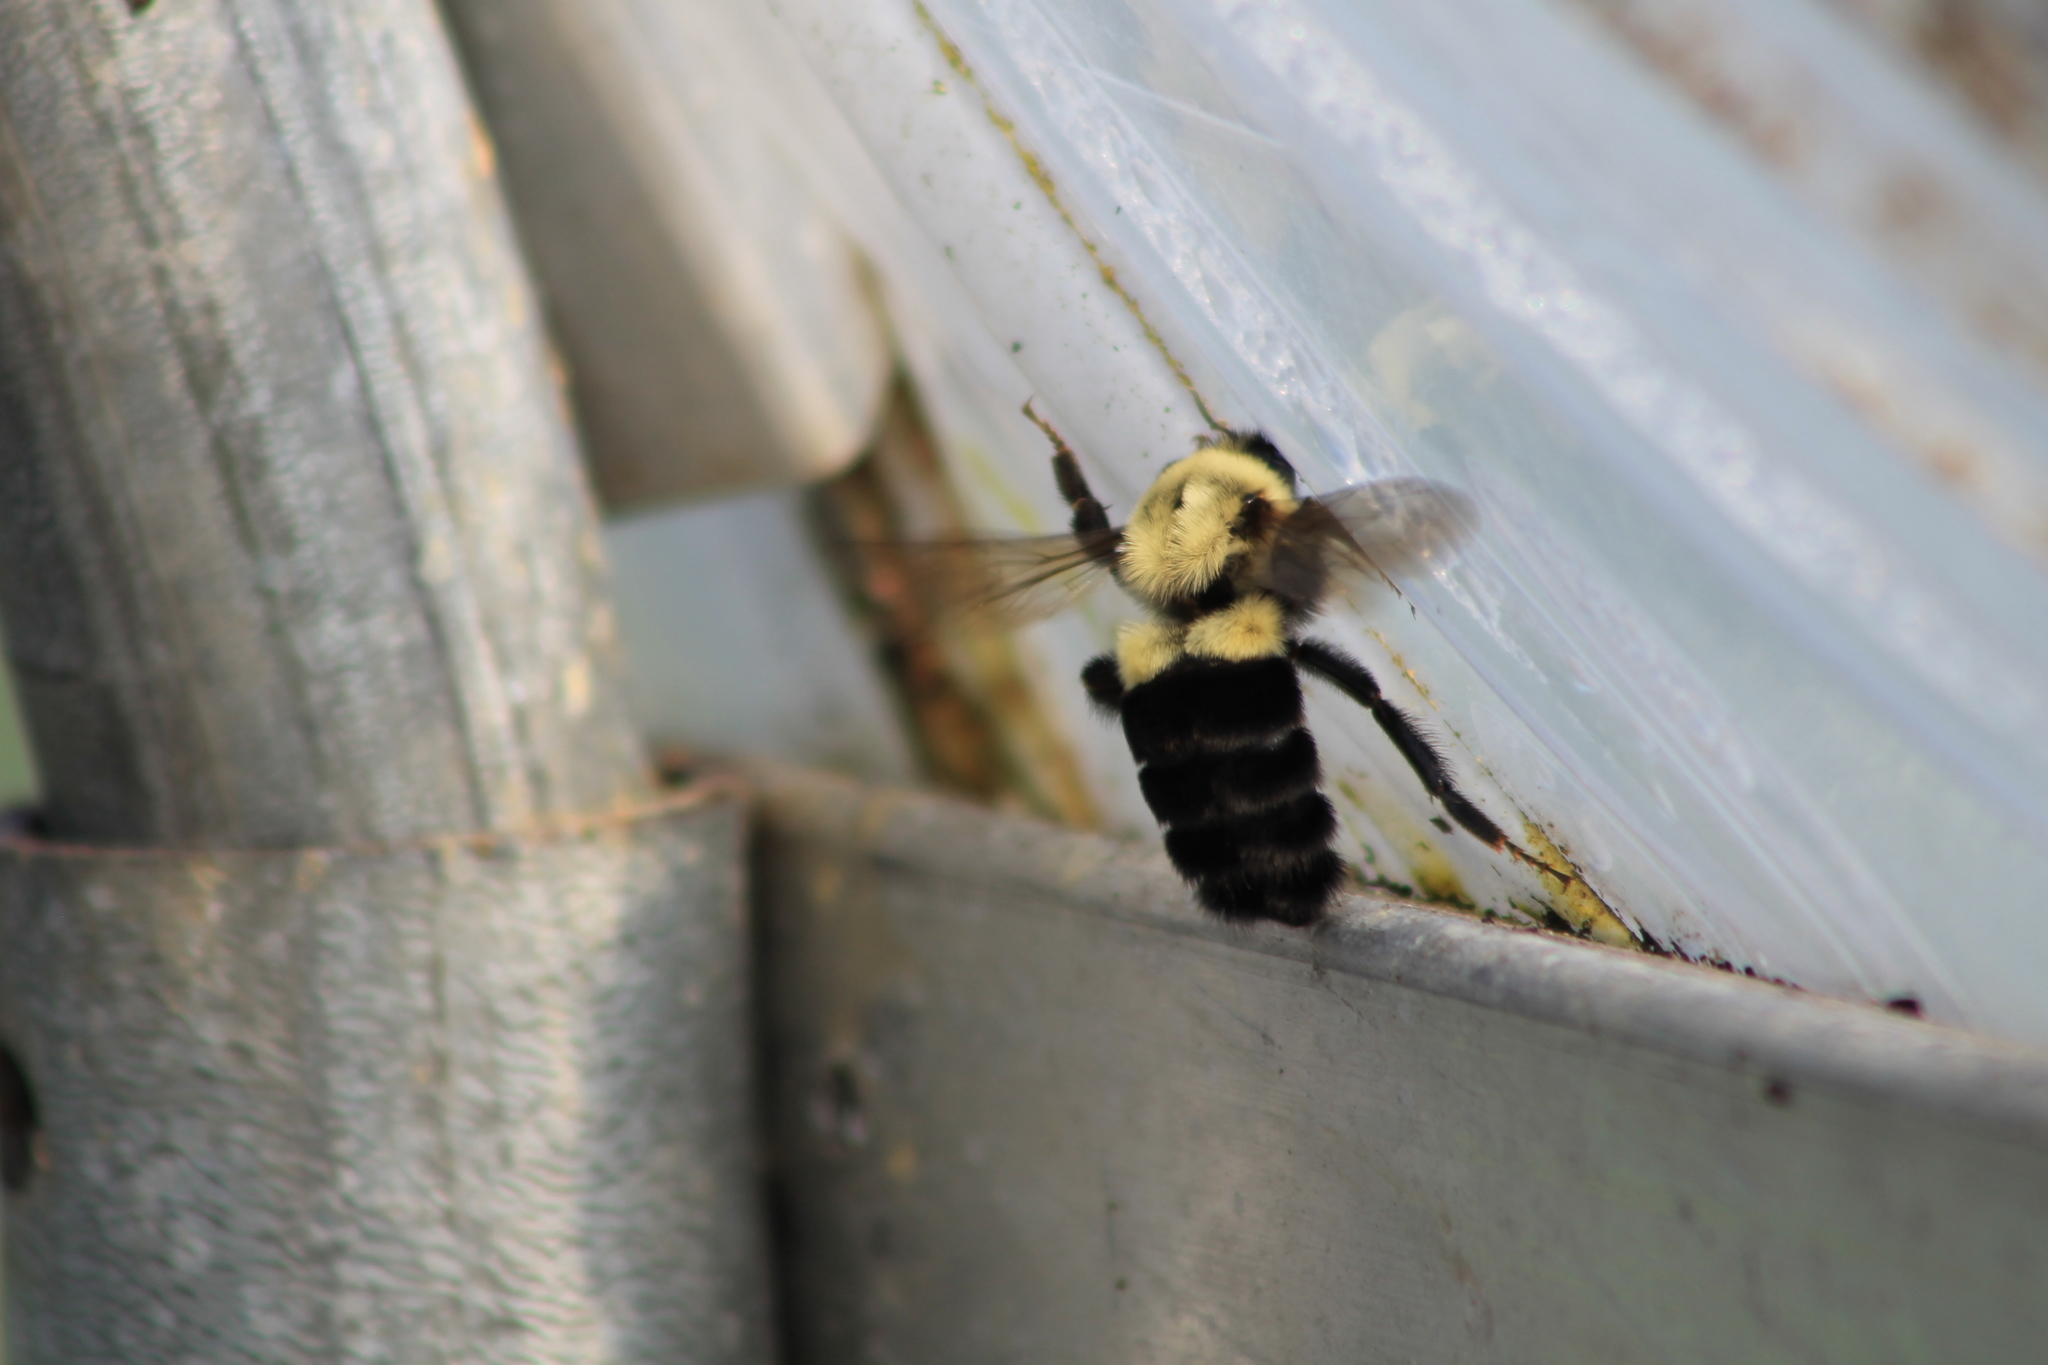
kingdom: Animalia
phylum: Arthropoda
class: Insecta
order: Hymenoptera
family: Apidae
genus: Bombus
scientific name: Bombus impatiens
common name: Common eastern bumble bee
